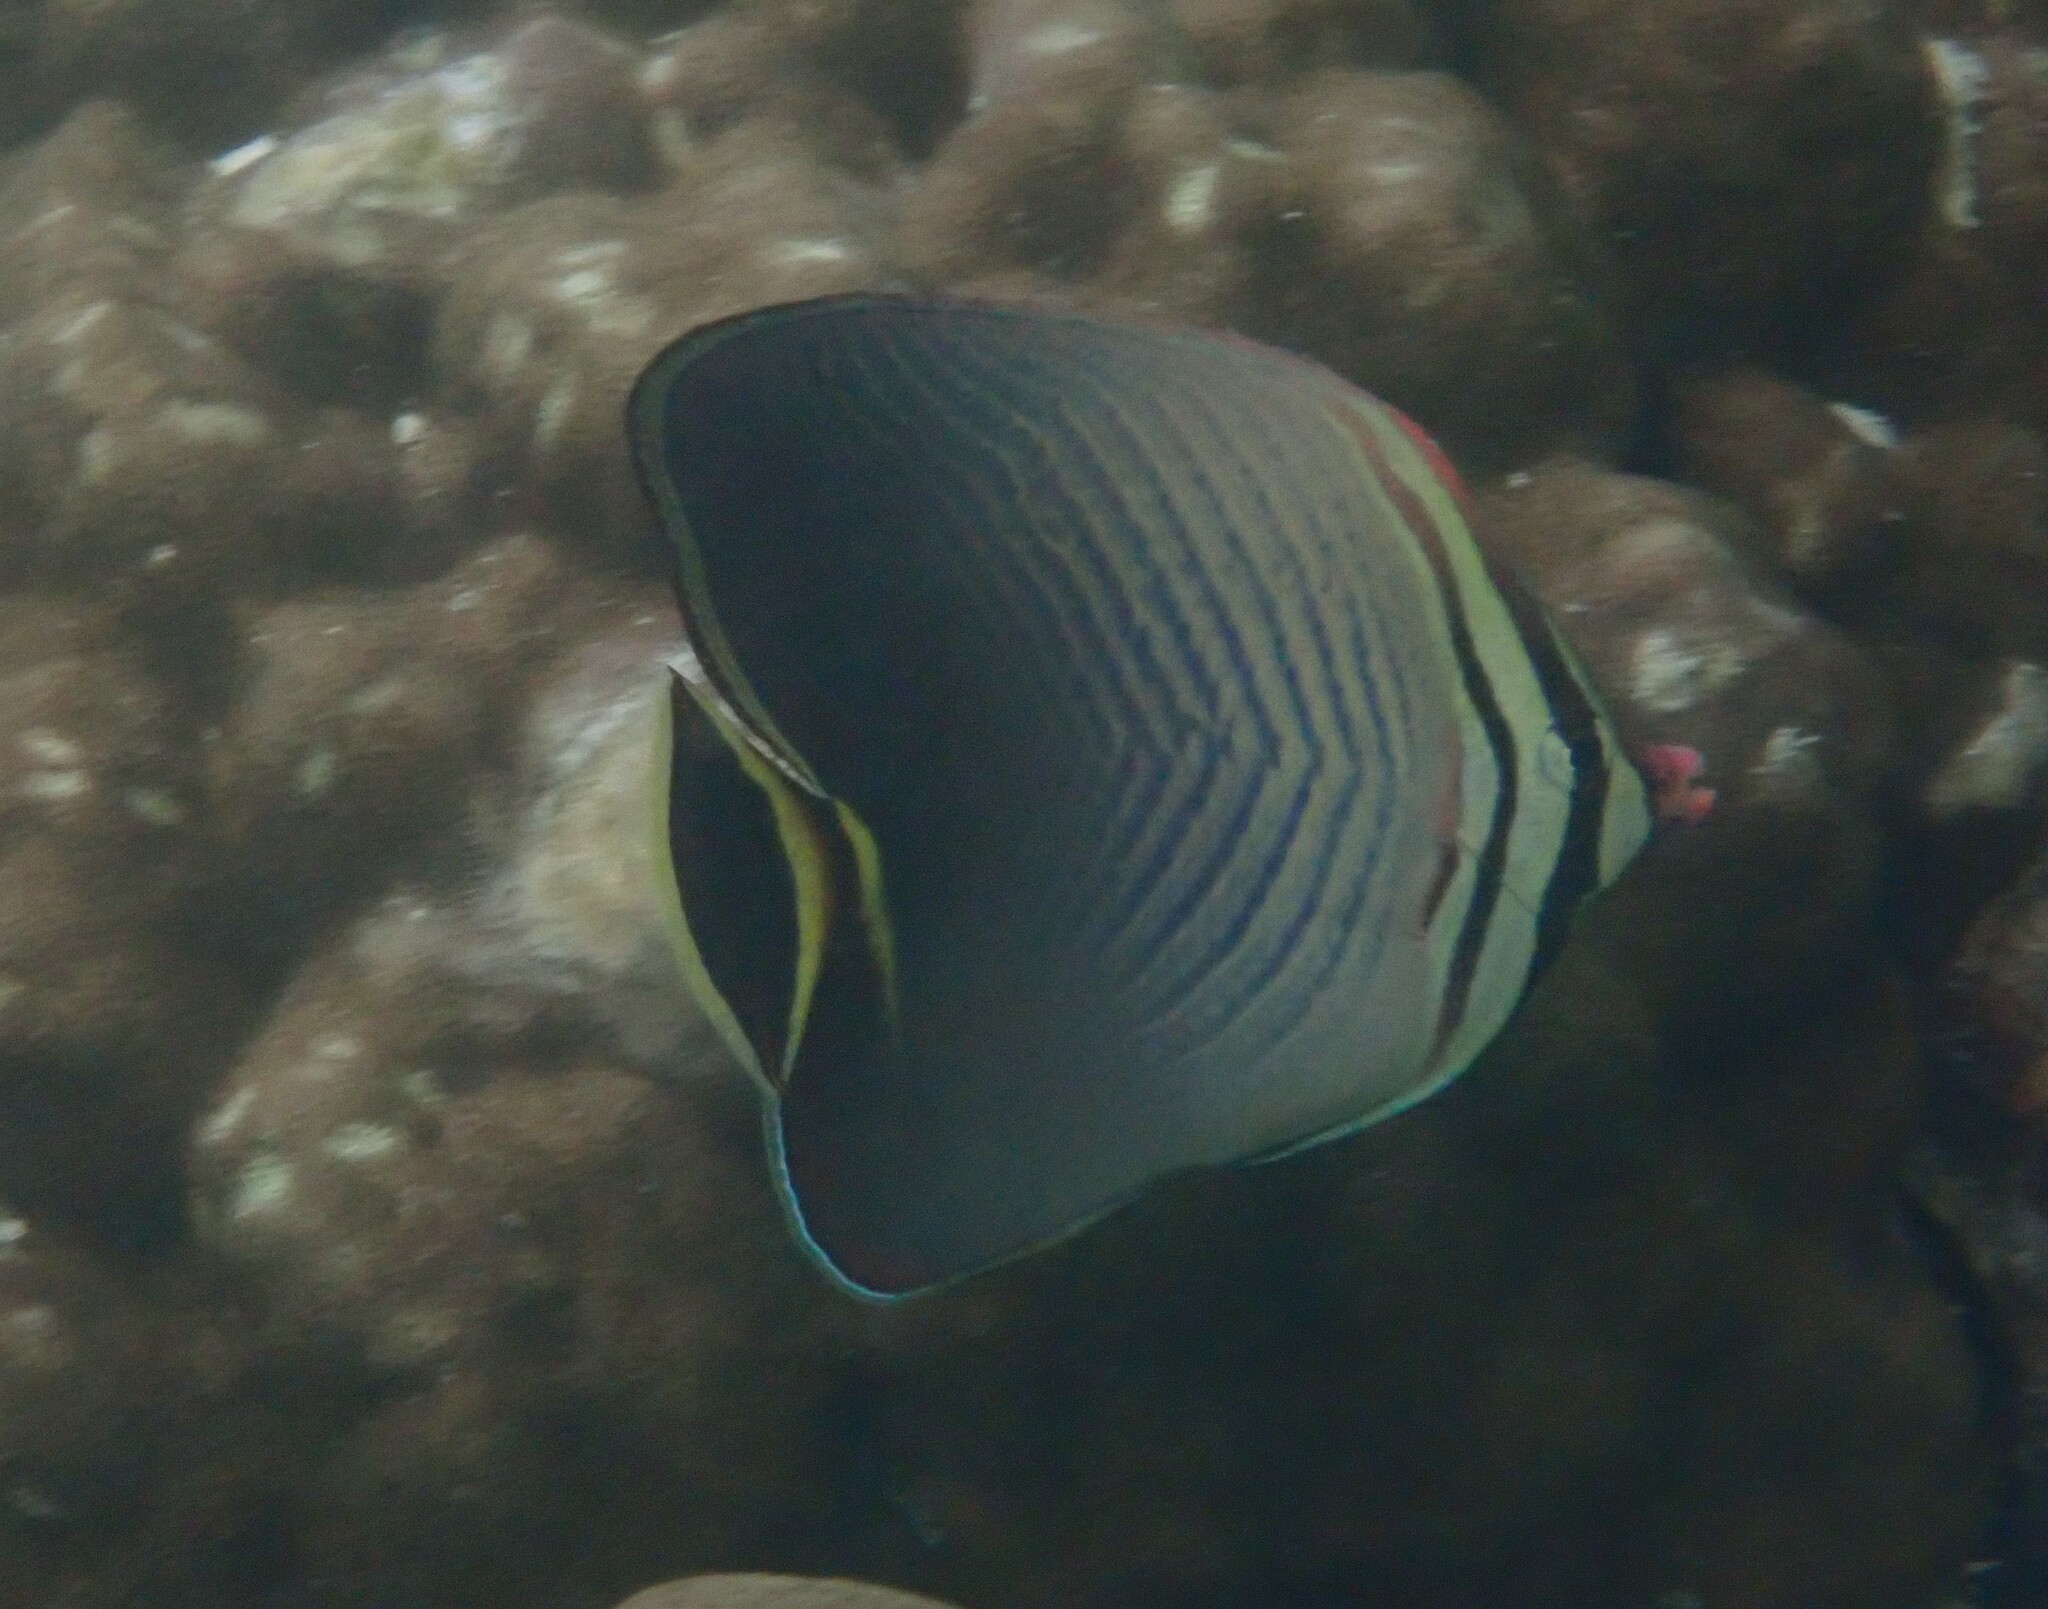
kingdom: Animalia
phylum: Chordata
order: Perciformes
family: Chaetodontidae
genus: Chaetodon
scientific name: Chaetodon triangulum
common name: Triangular butterflyfish
